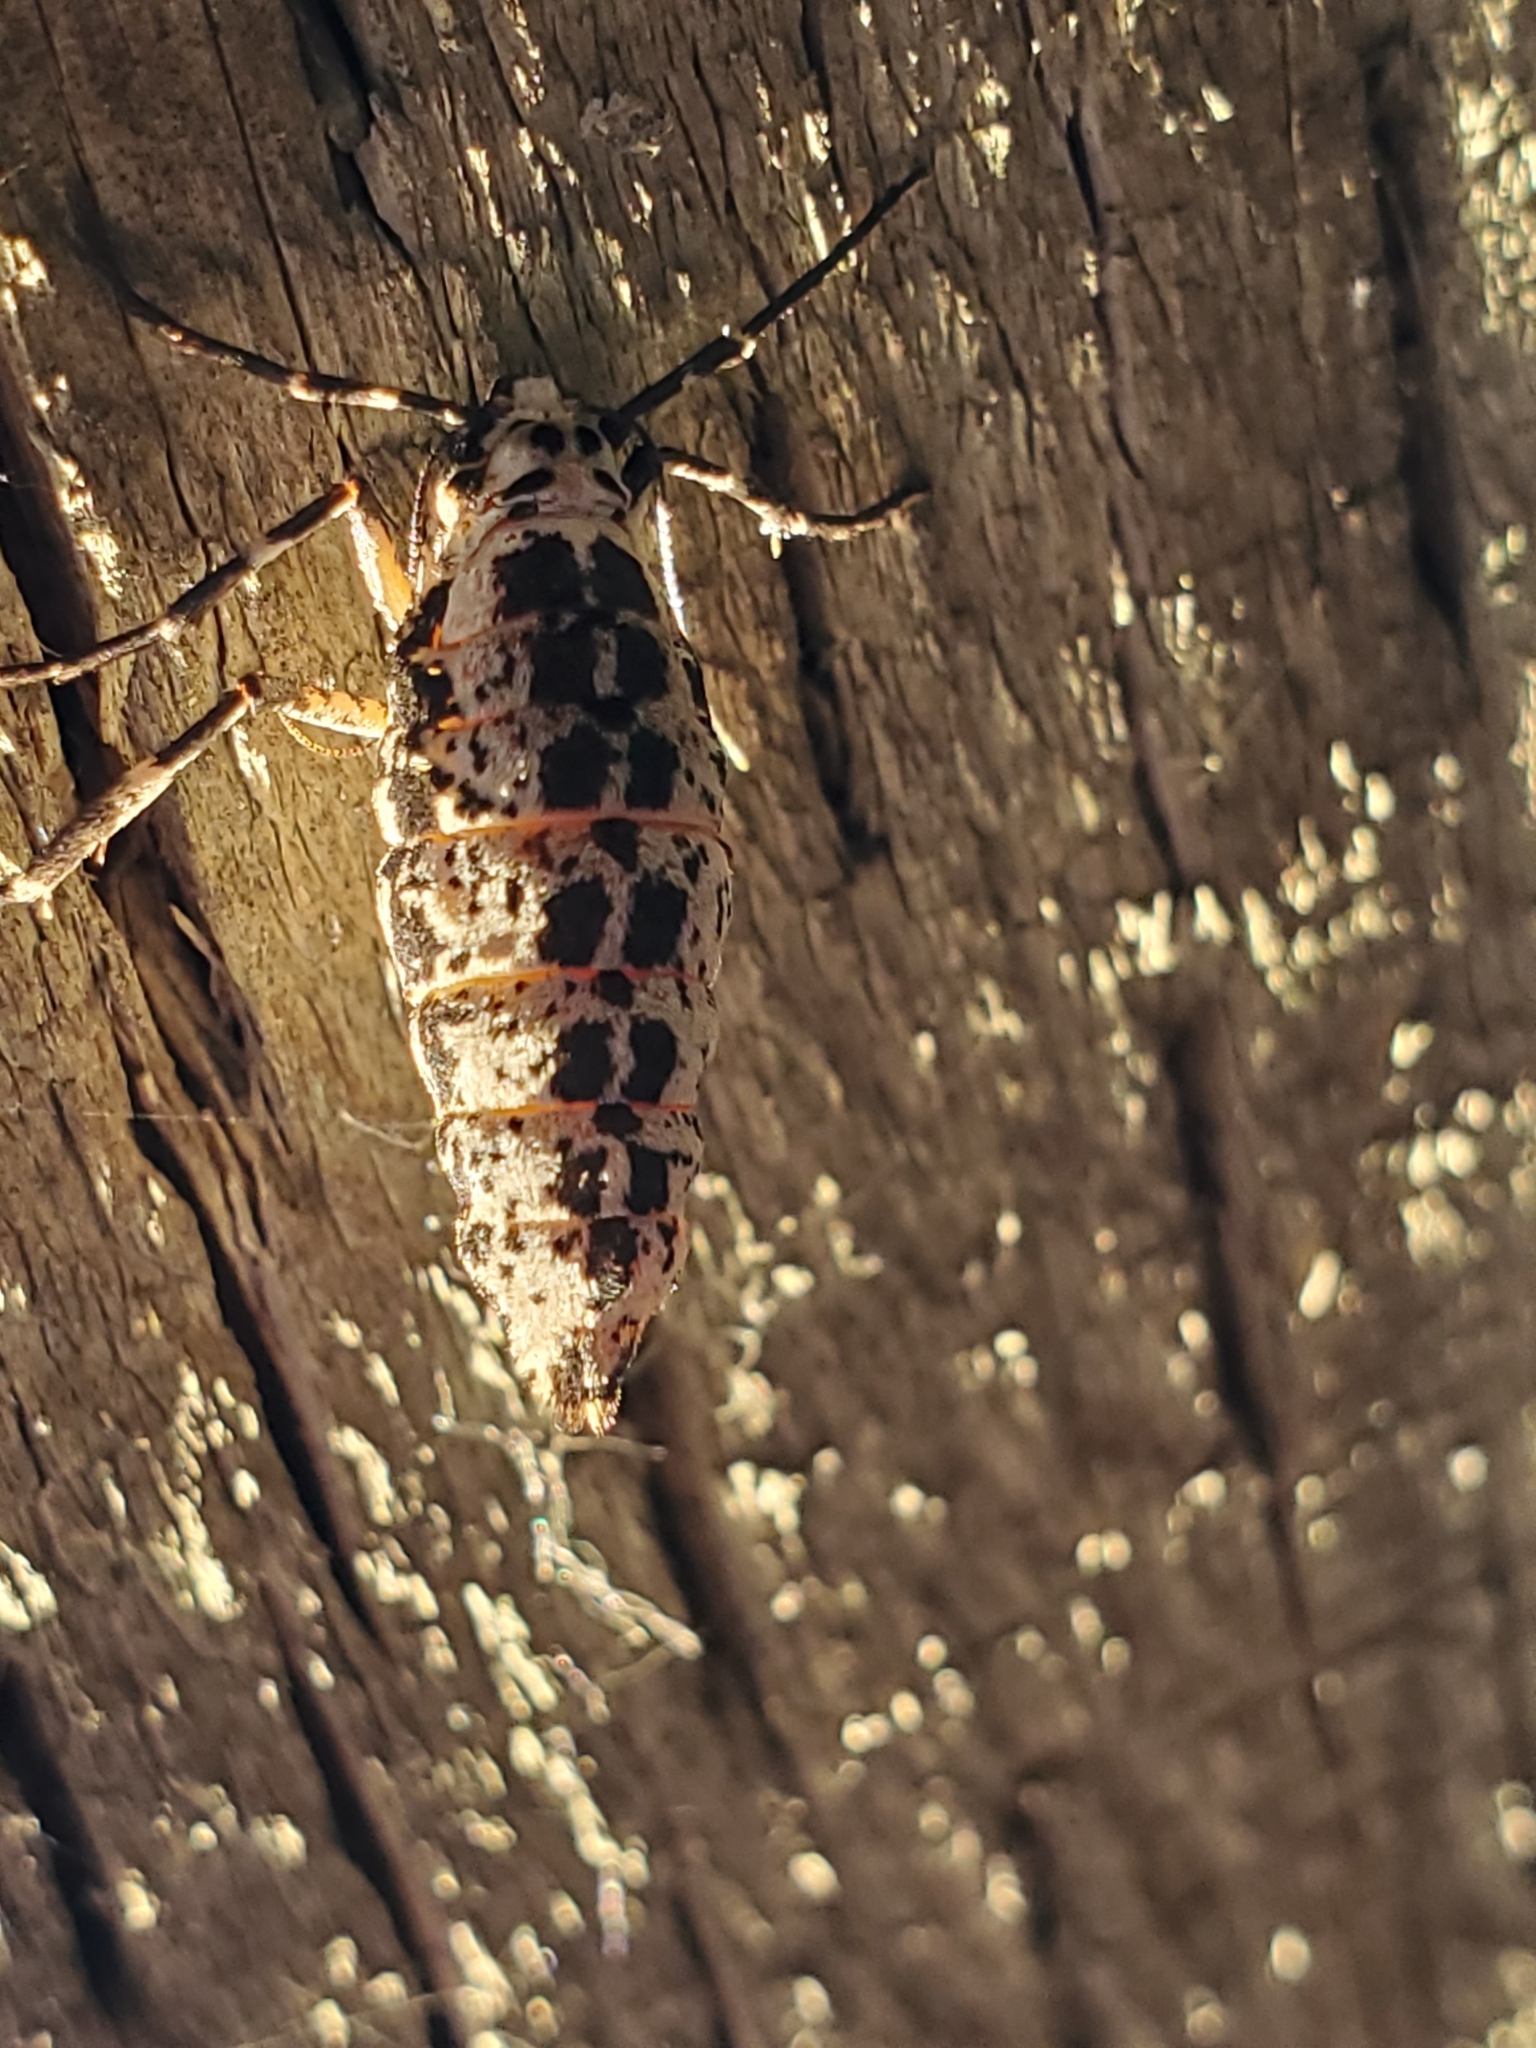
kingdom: Animalia
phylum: Arthropoda
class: Insecta
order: Lepidoptera
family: Geometridae
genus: Erannis
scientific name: Erannis tiliaria
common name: Linden looper
